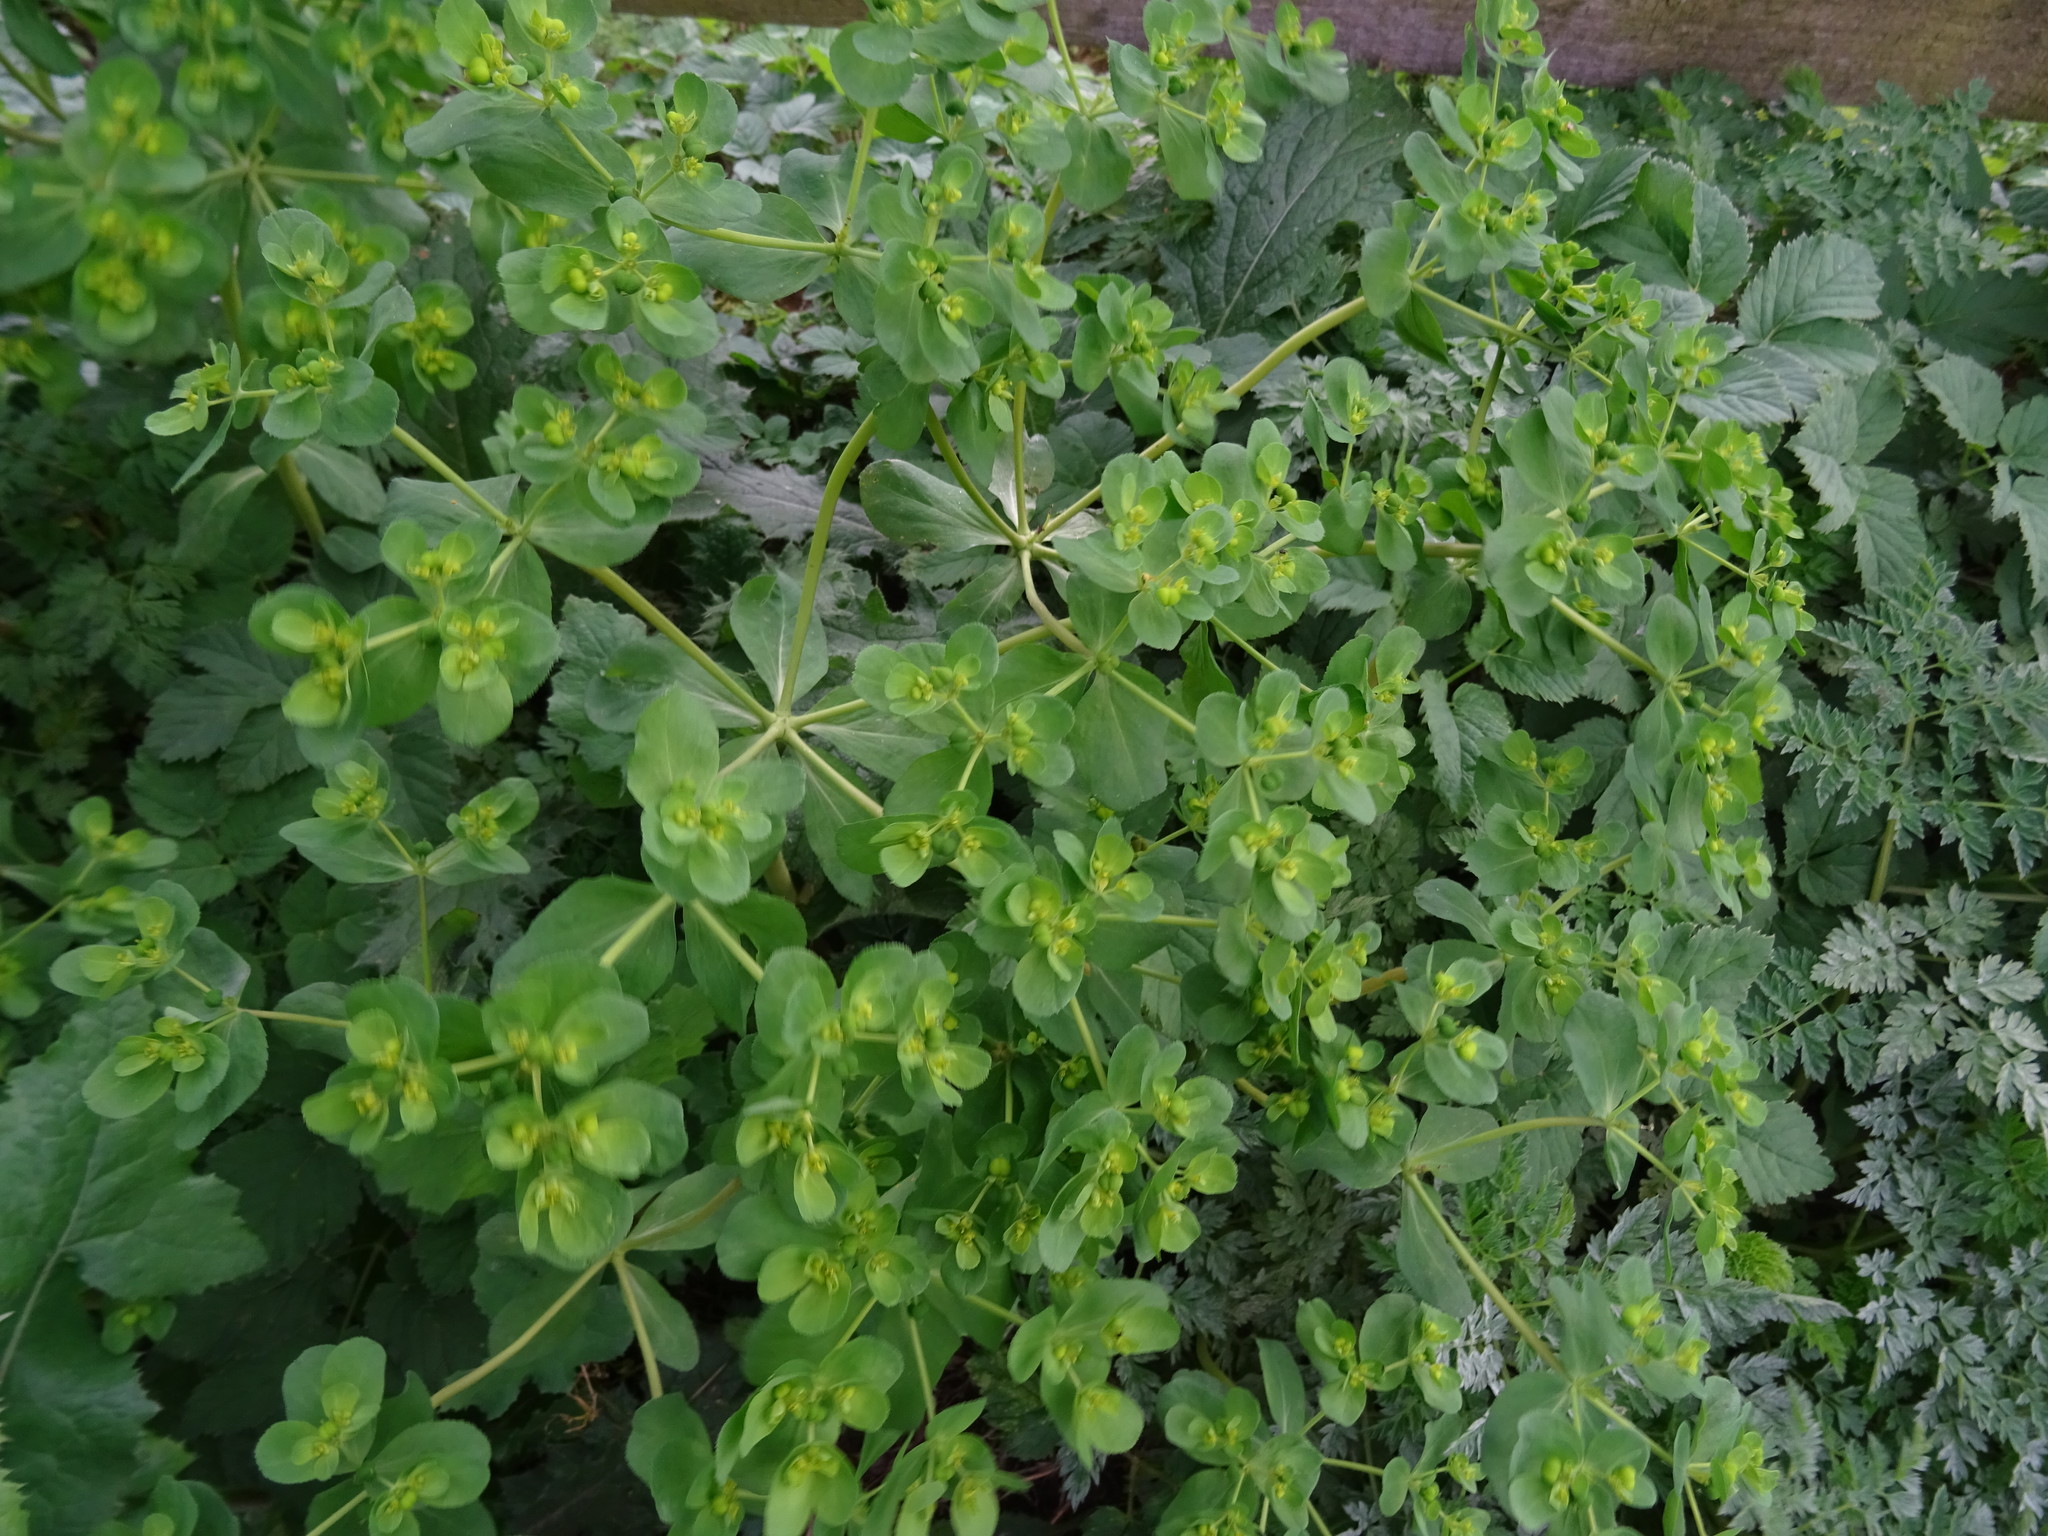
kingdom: Plantae
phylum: Tracheophyta
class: Magnoliopsida
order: Malpighiales
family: Euphorbiaceae
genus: Euphorbia
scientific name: Euphorbia helioscopia
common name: Sun spurge
